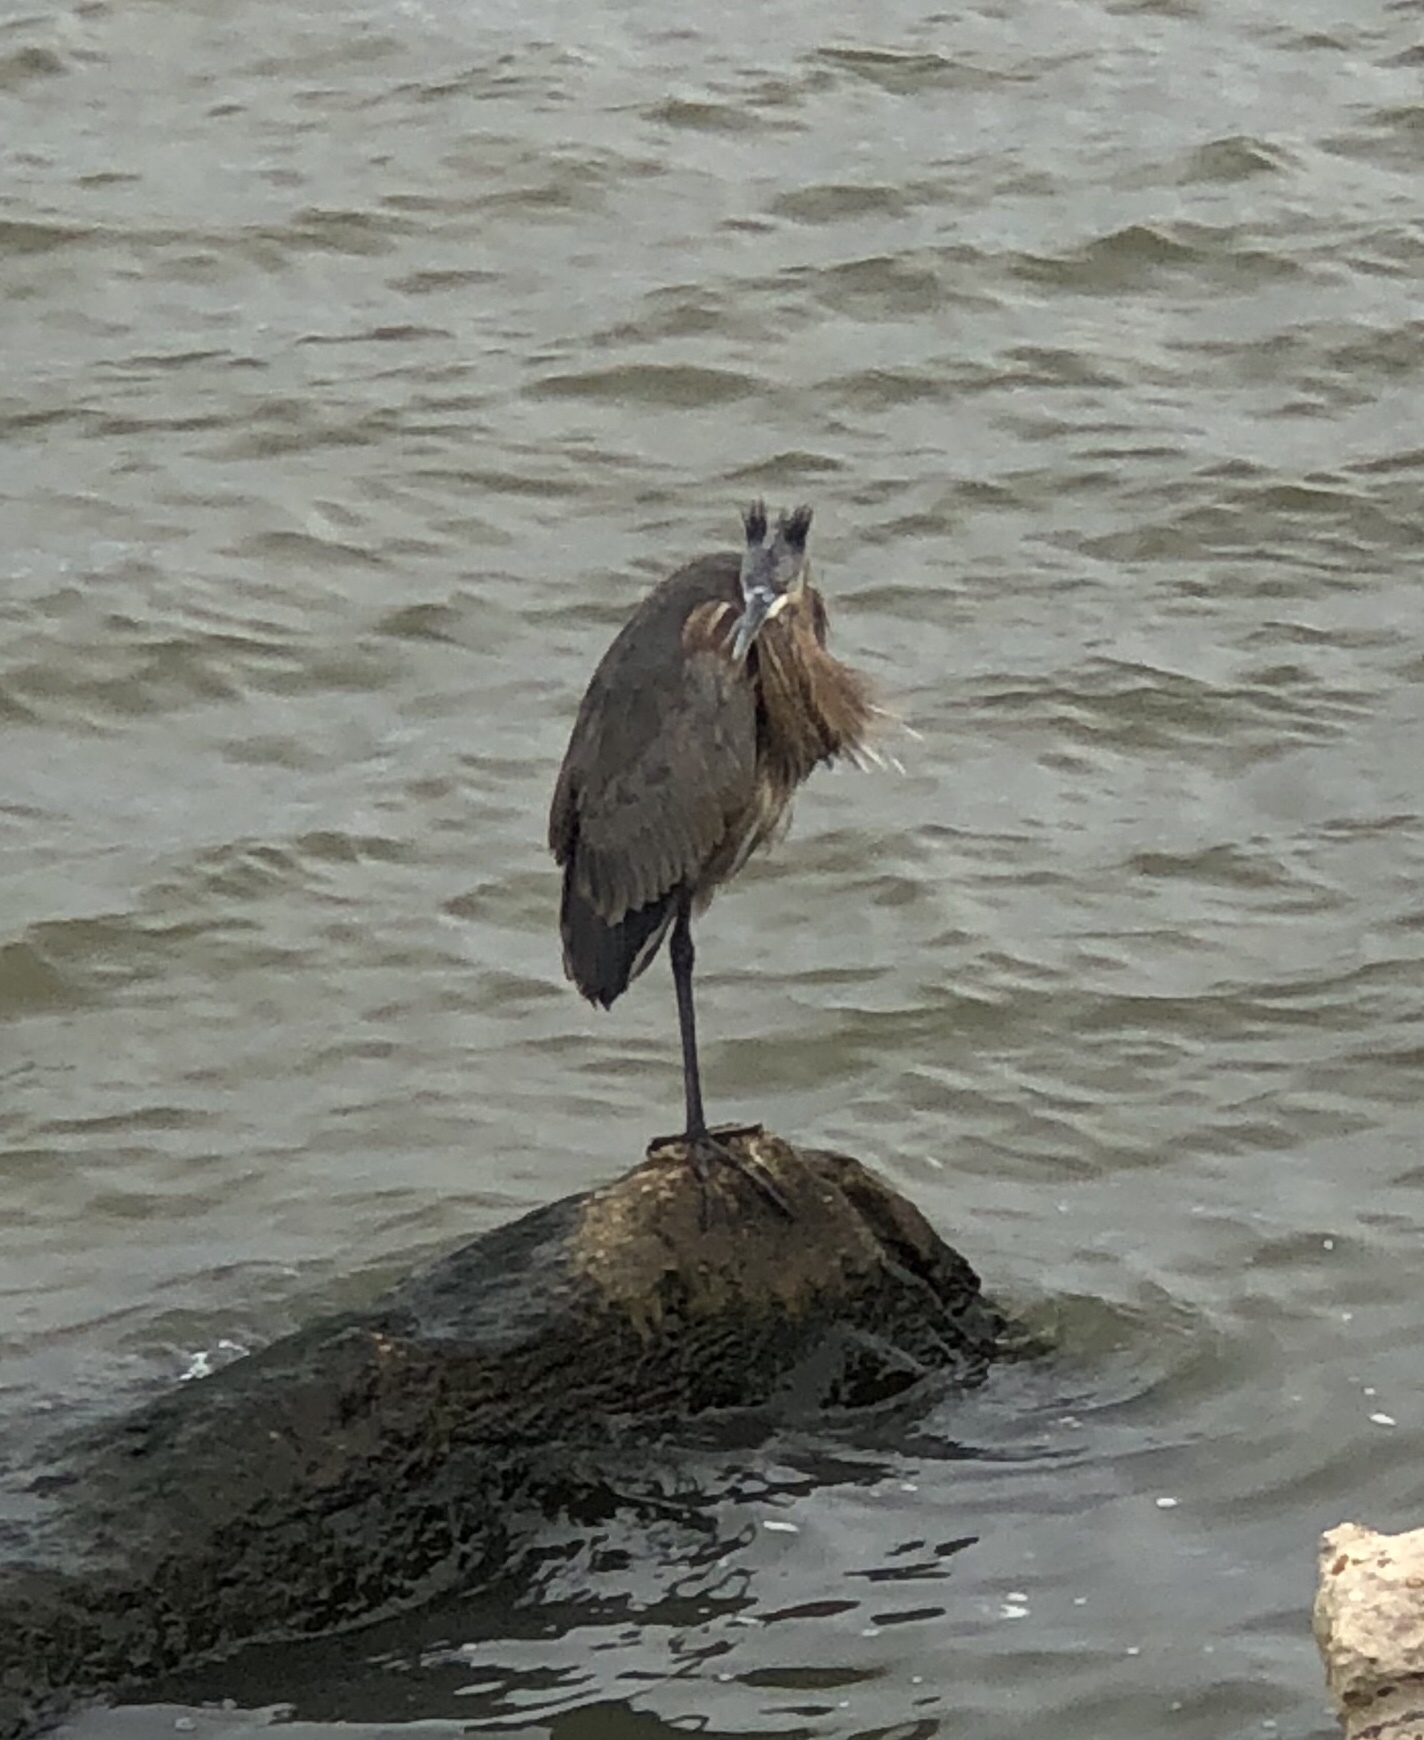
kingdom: Animalia
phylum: Chordata
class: Aves
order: Pelecaniformes
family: Ardeidae
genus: Ardea
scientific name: Ardea herodias
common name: Great blue heron
